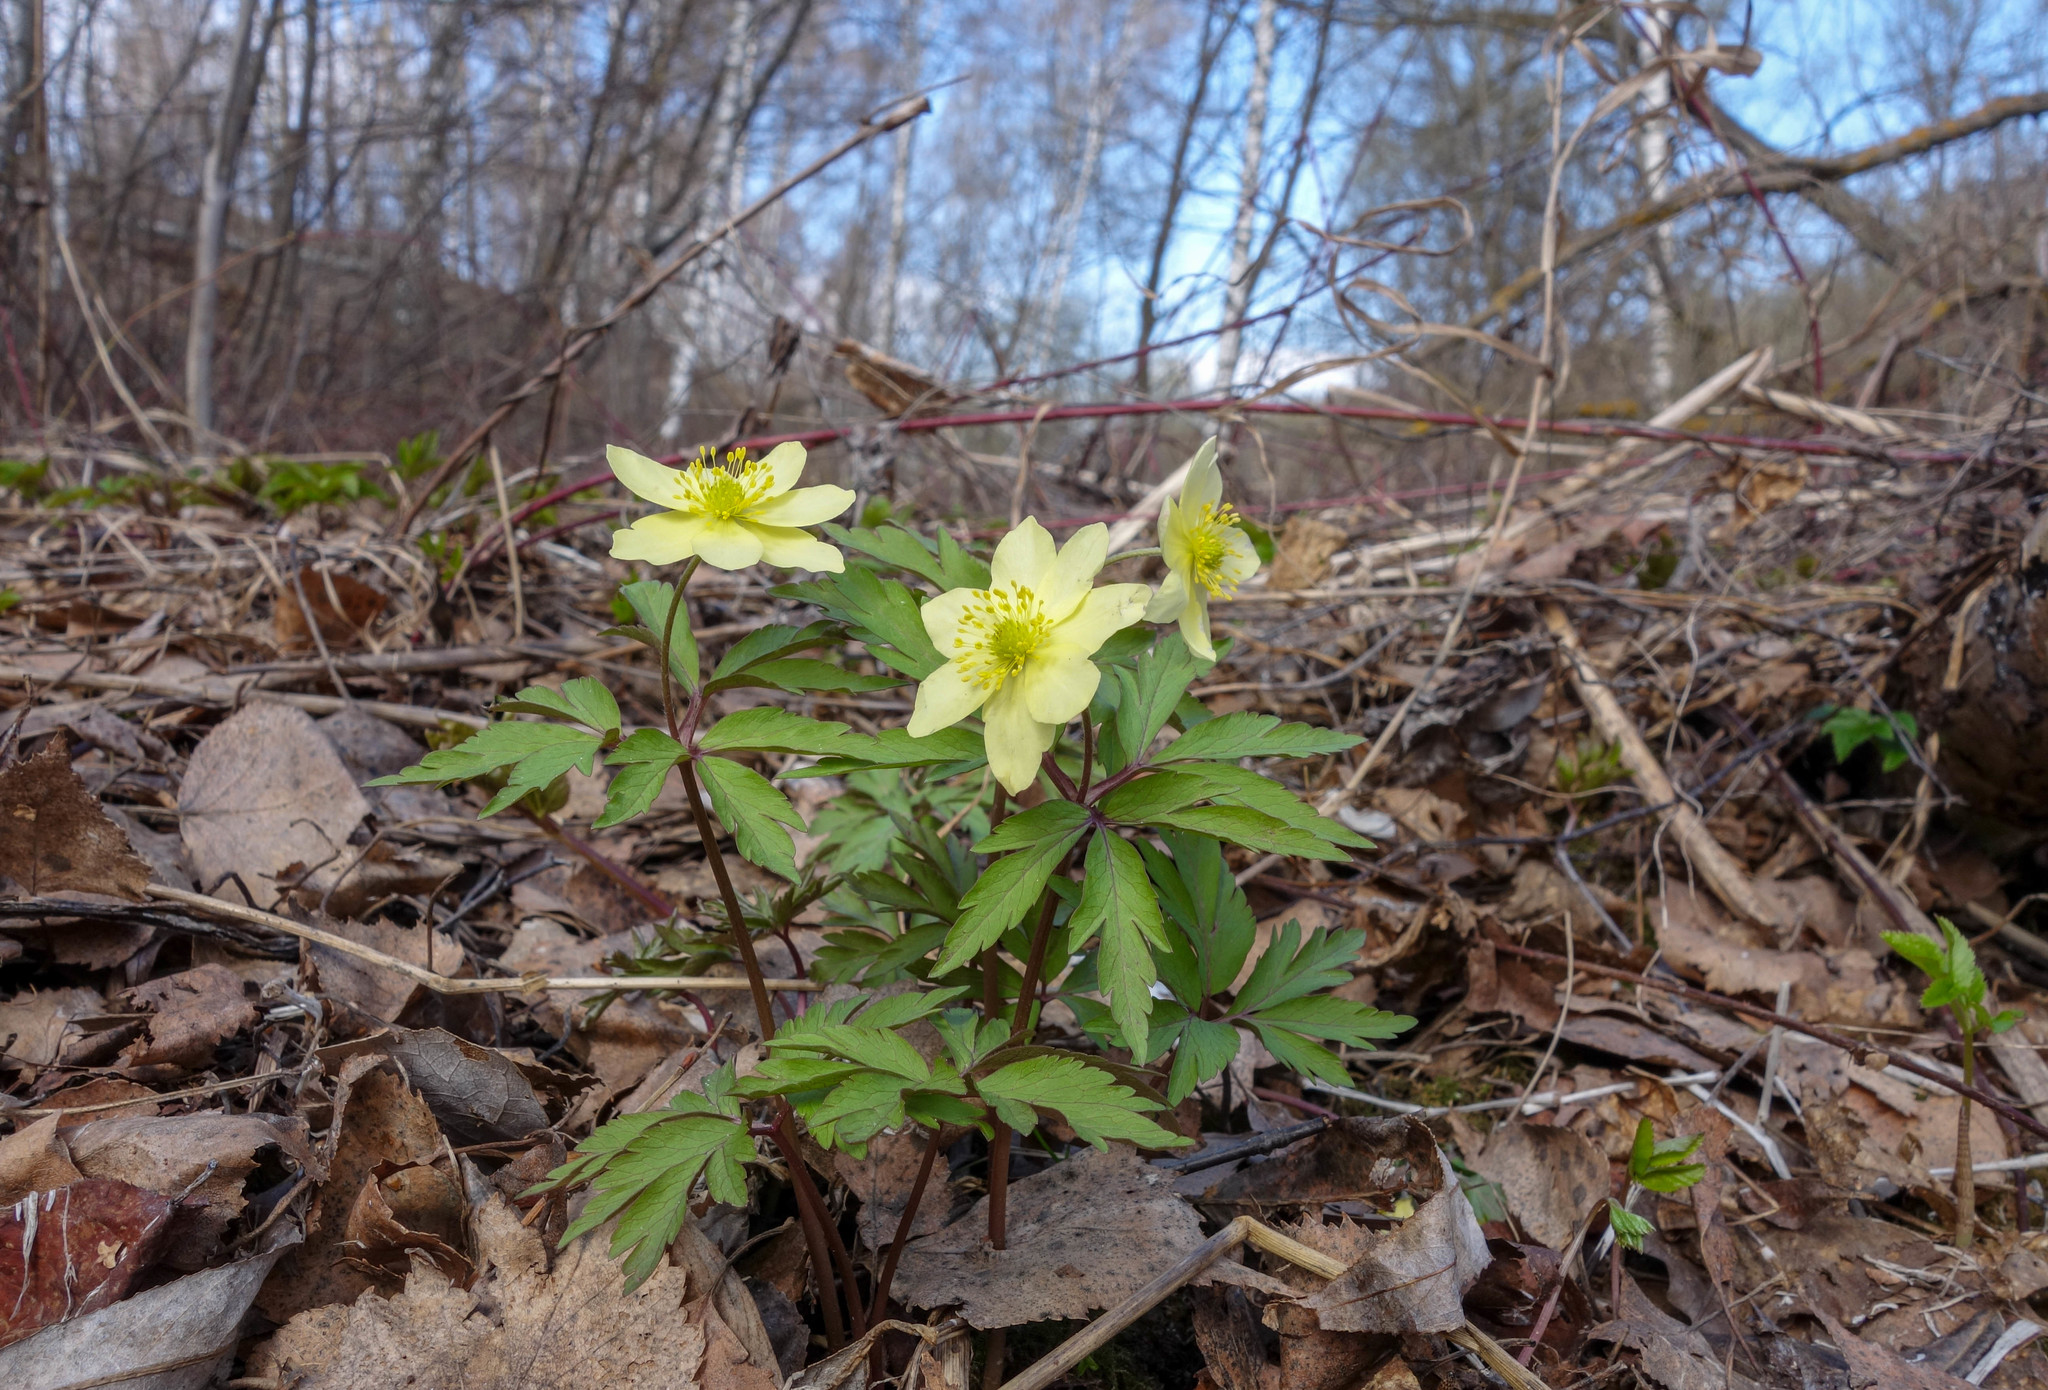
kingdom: Plantae
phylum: Tracheophyta
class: Magnoliopsida
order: Ranunculales
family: Ranunculaceae
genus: Anemone
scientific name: Anemone korzchinskyi
